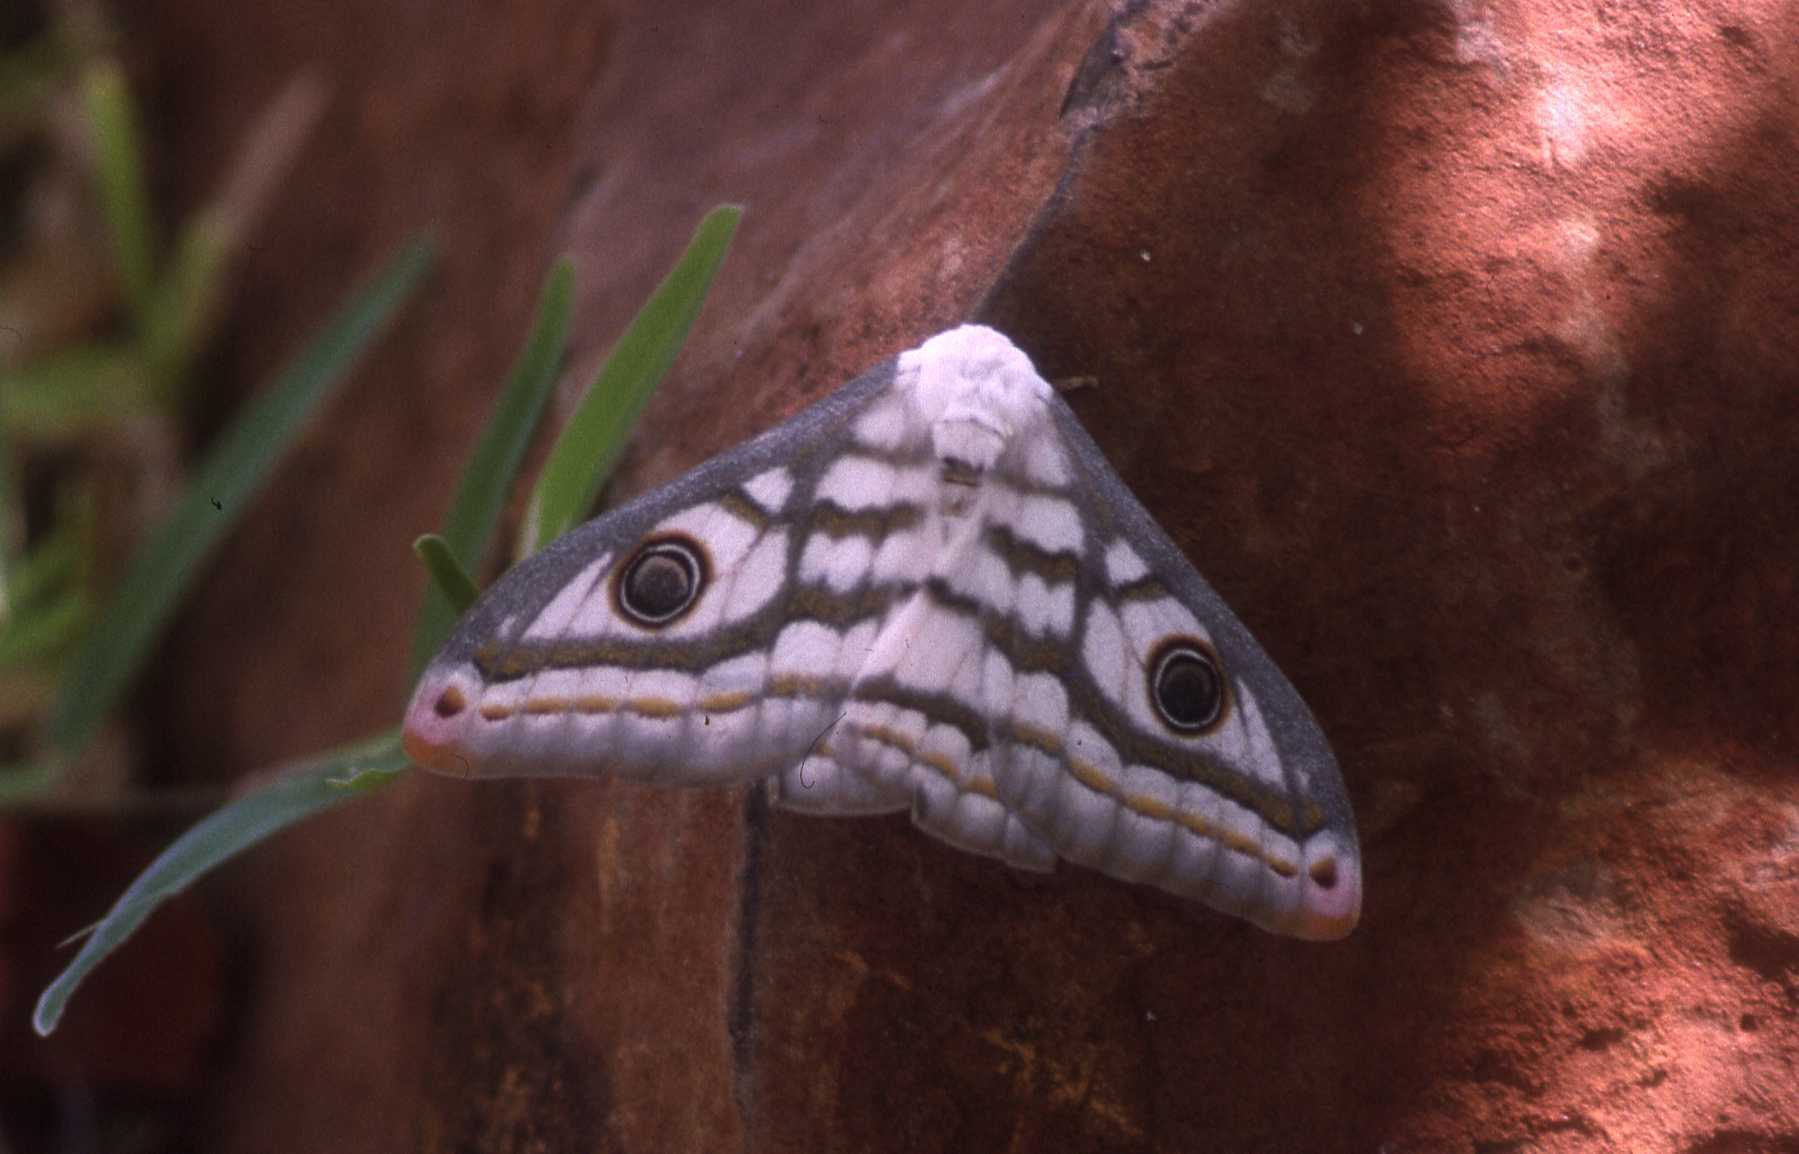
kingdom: Animalia
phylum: Arthropoda
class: Insecta
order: Lepidoptera
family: Saturniidae
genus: Heniocha
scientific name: Heniocha marnois
